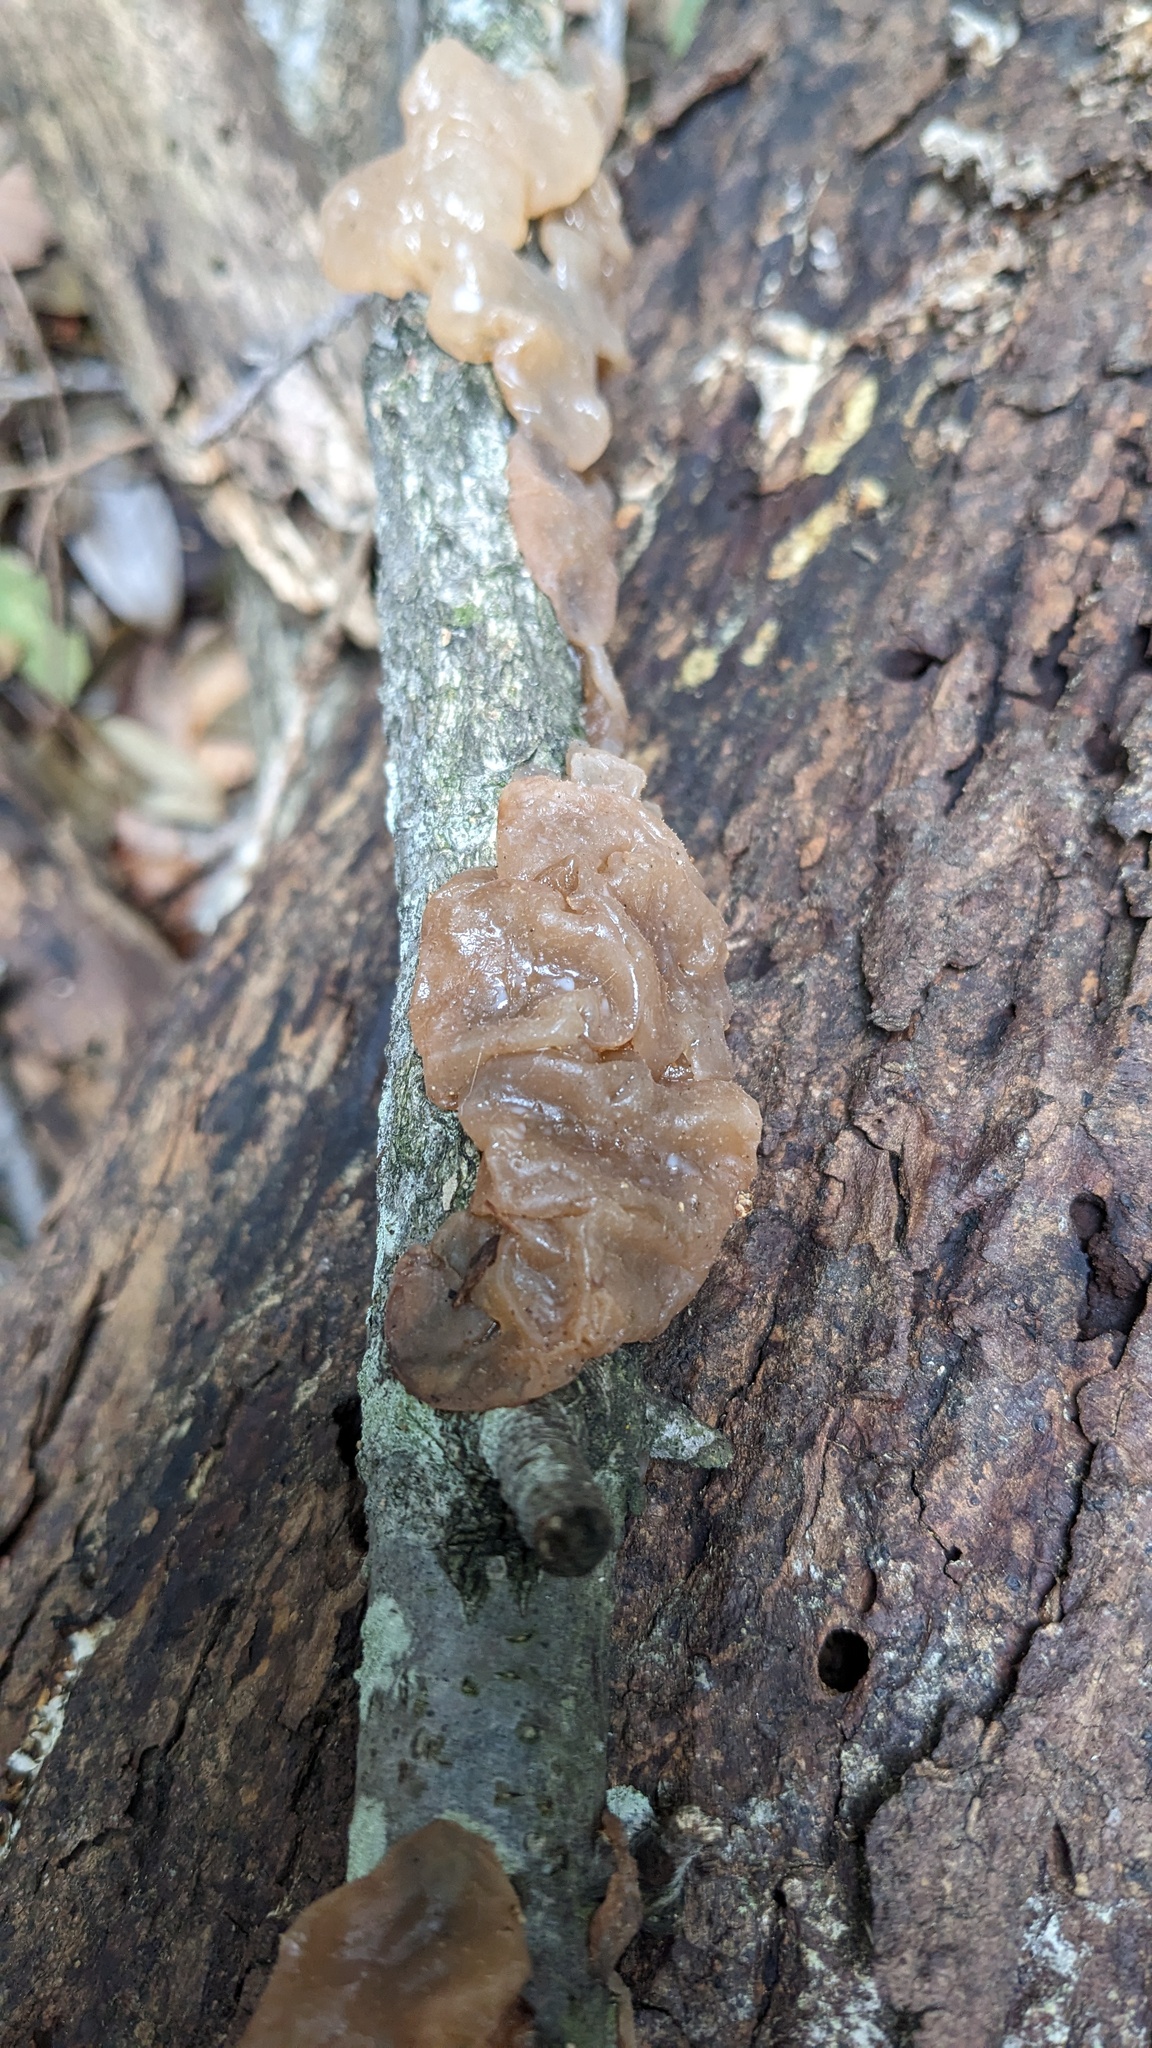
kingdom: Fungi
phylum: Basidiomycota
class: Agaricomycetes
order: Auriculariales
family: Auriculariaceae
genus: Exidia
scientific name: Exidia uvapassa
